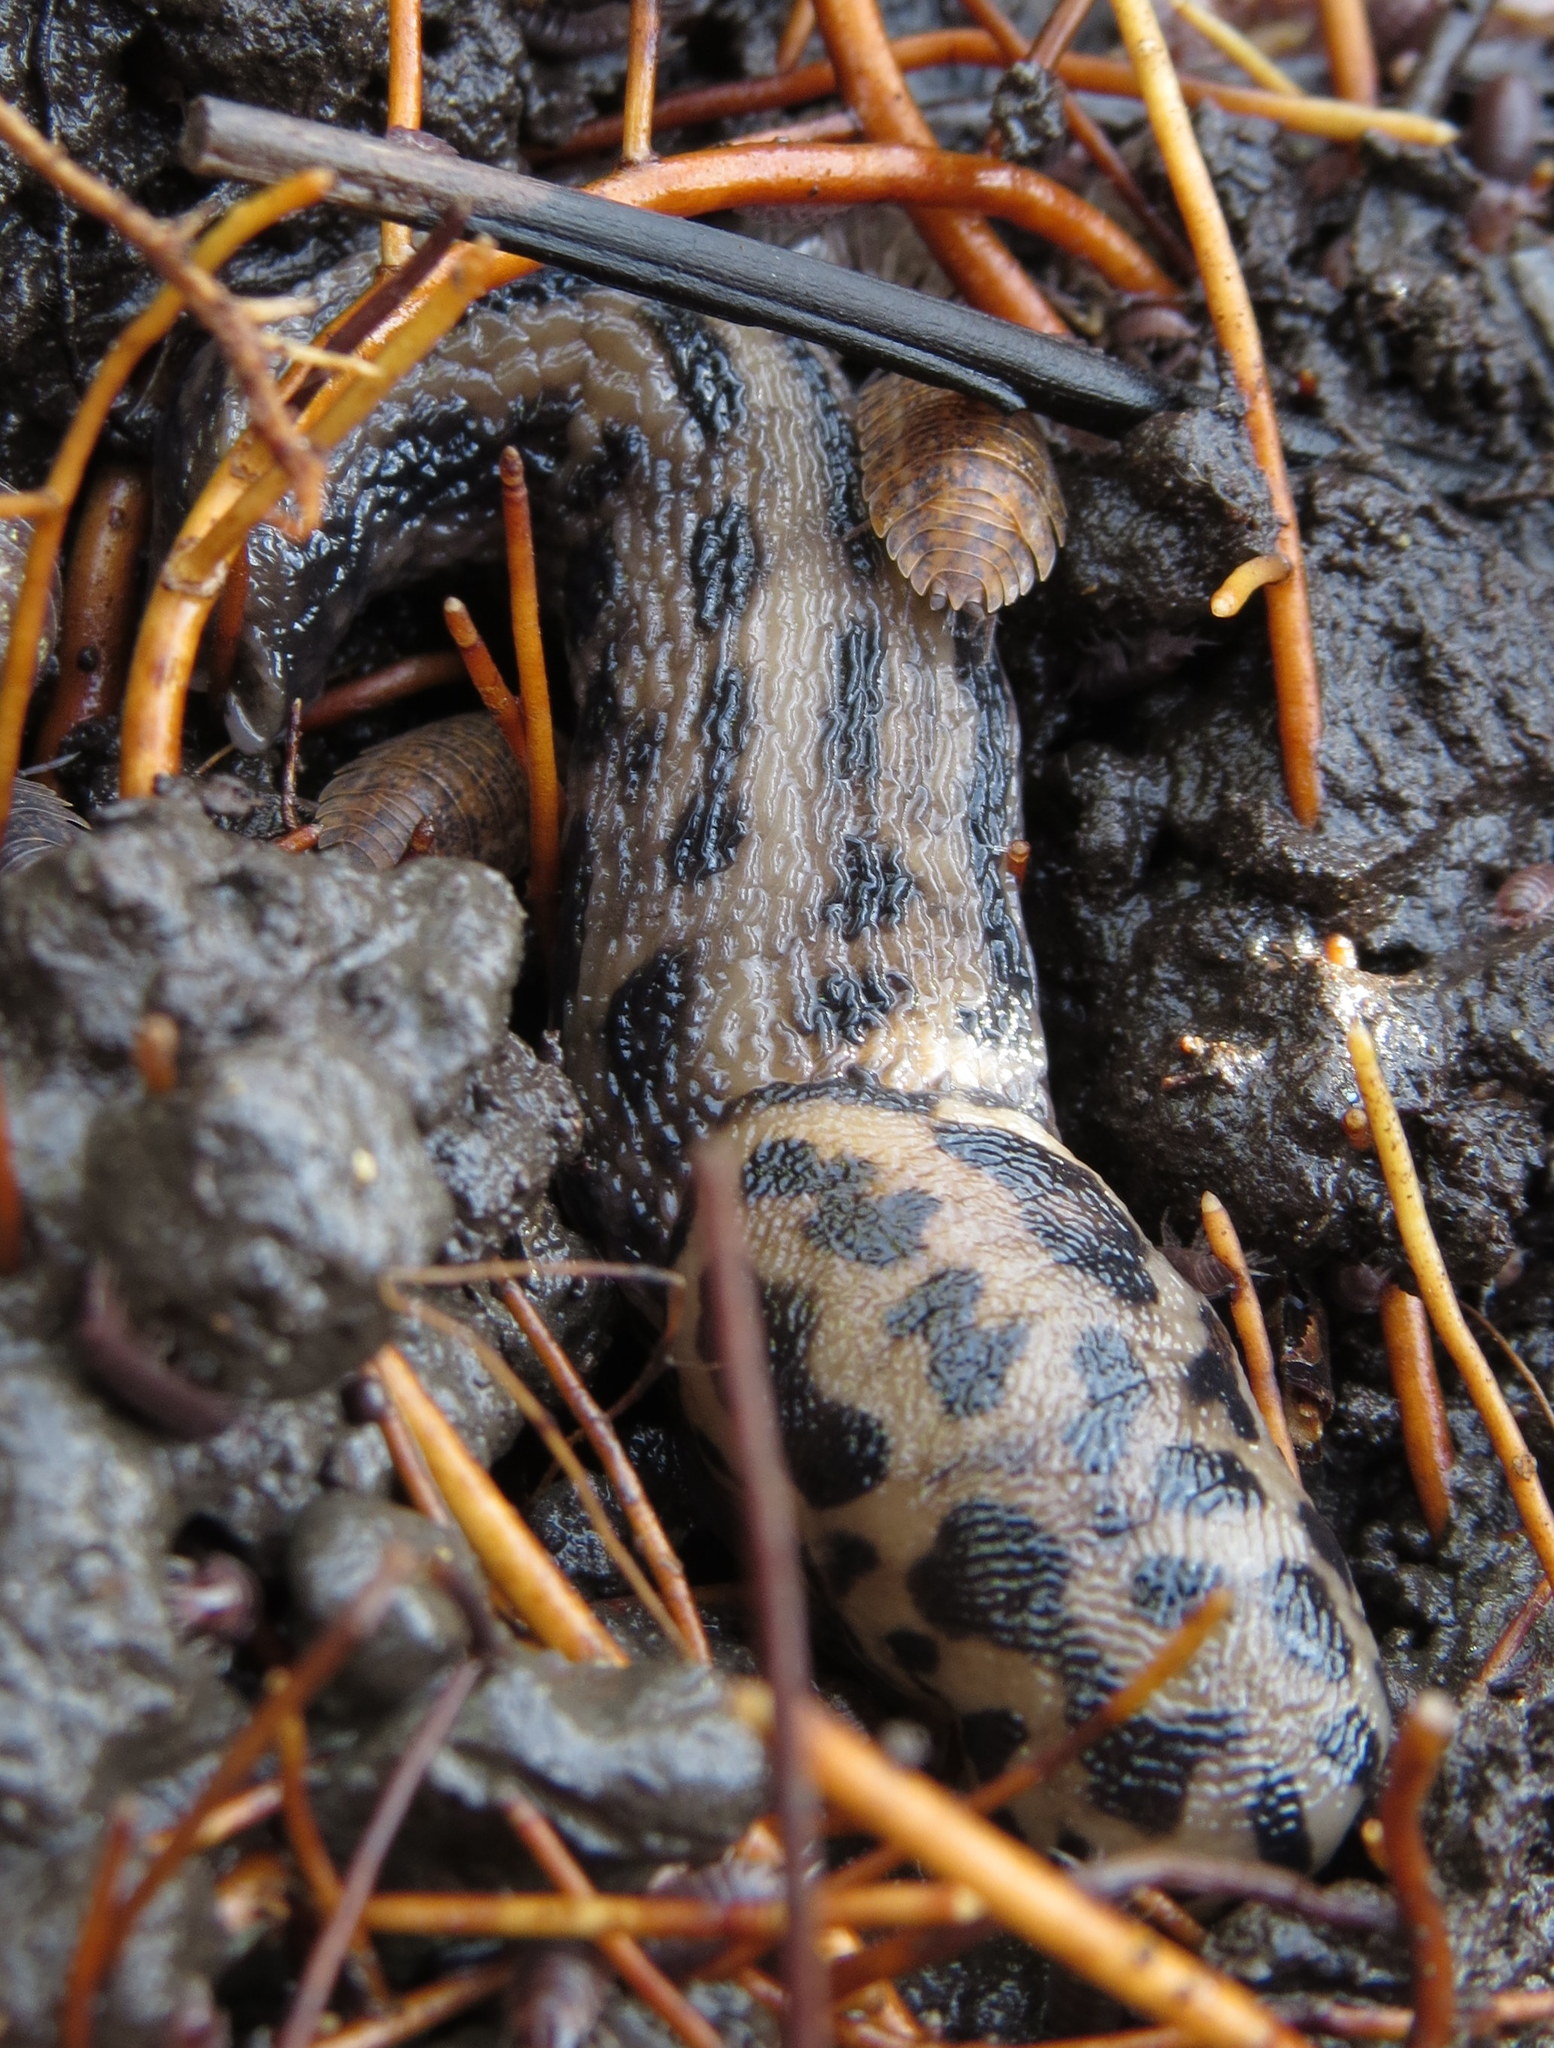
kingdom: Animalia
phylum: Mollusca
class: Gastropoda
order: Stylommatophora
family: Limacidae
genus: Limax
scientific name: Limax maximus
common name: Great grey slug
